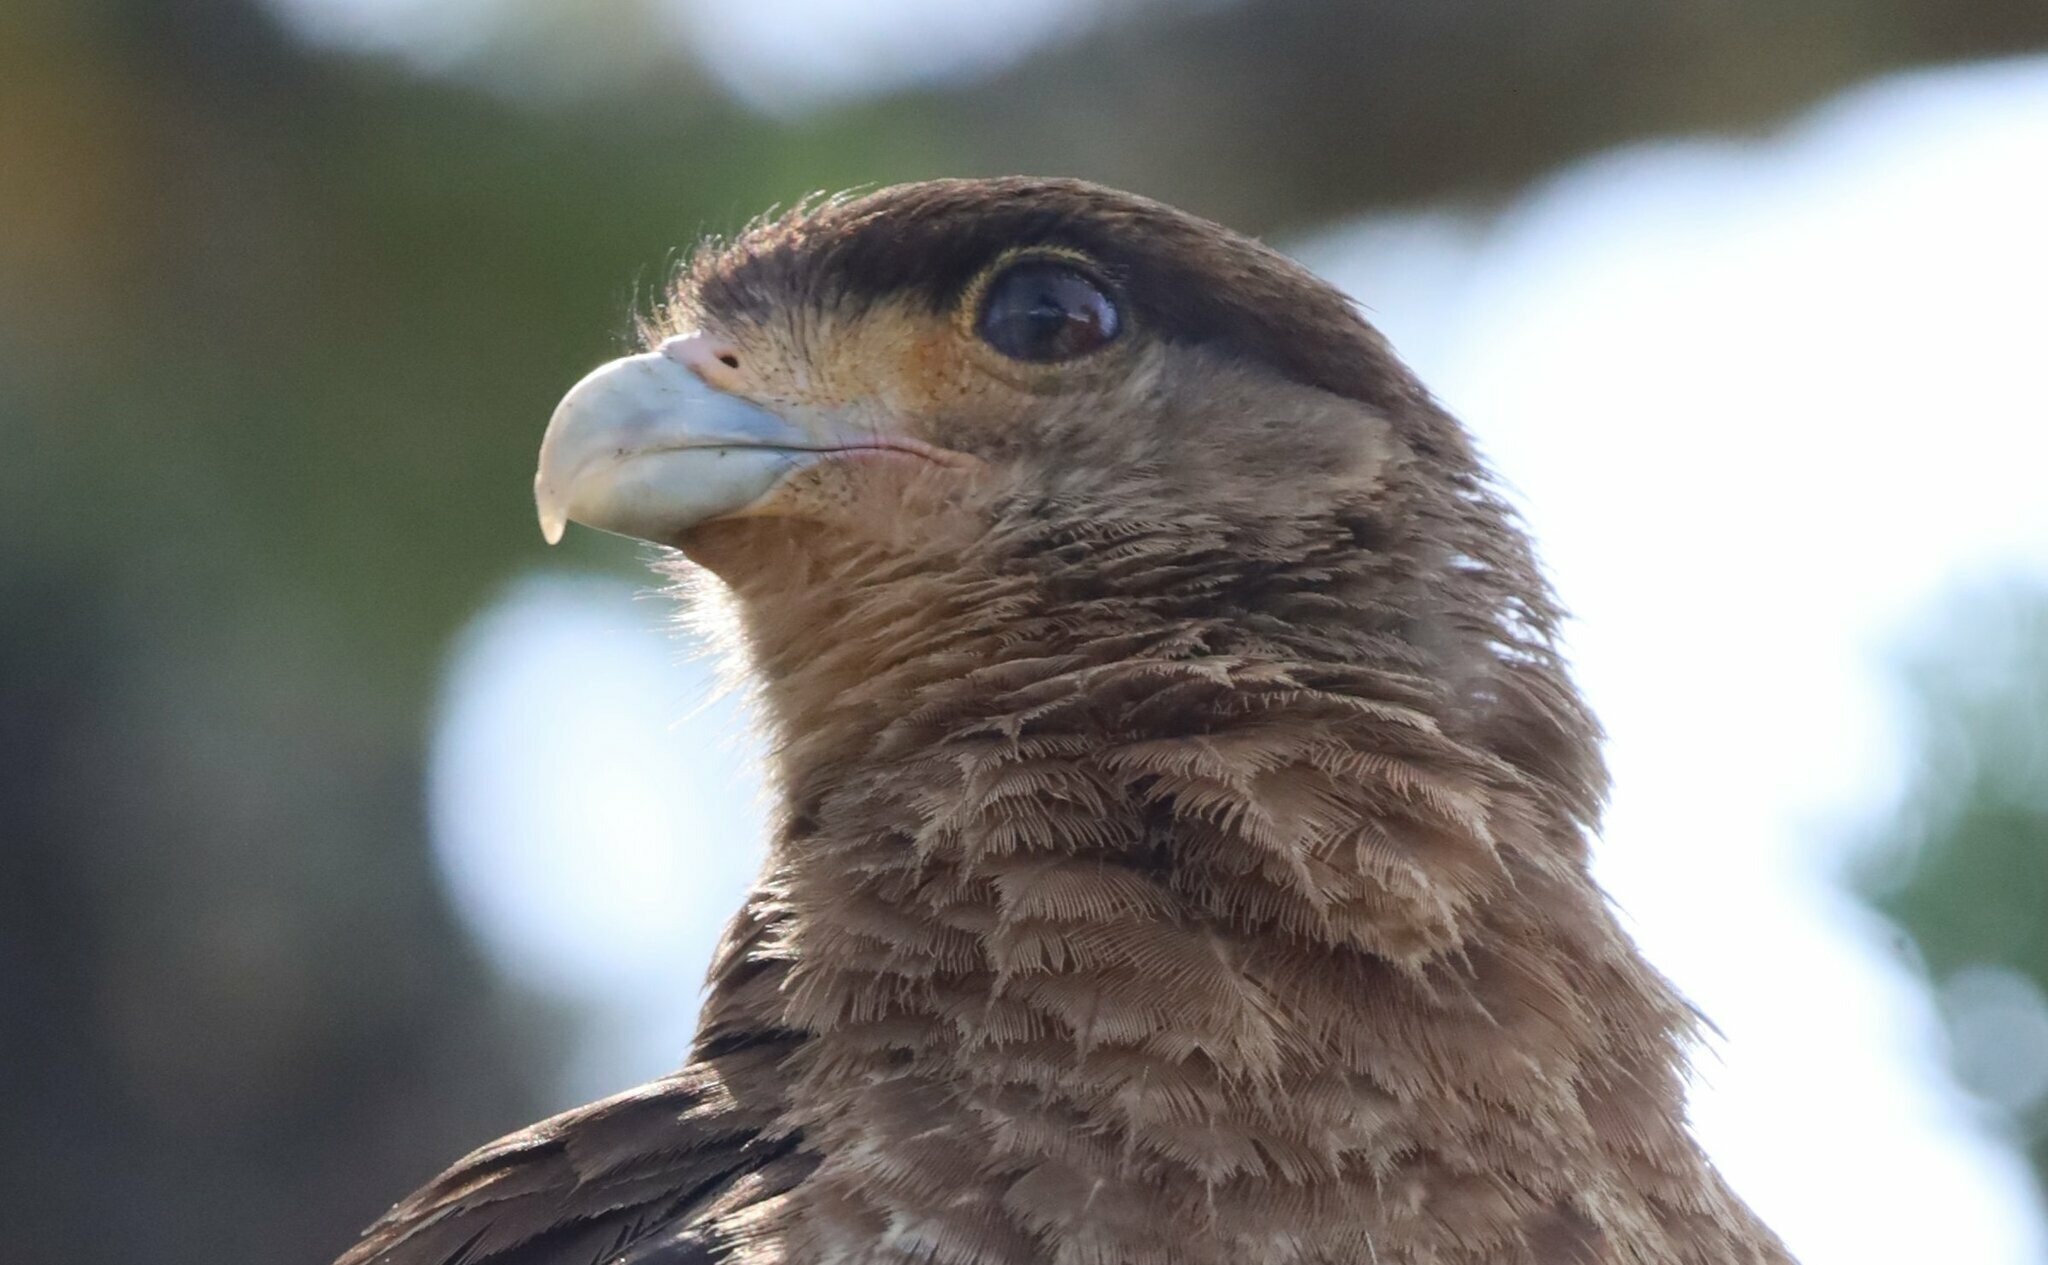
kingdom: Animalia
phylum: Chordata
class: Aves
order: Falconiformes
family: Falconidae
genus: Daptrius
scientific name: Daptrius
